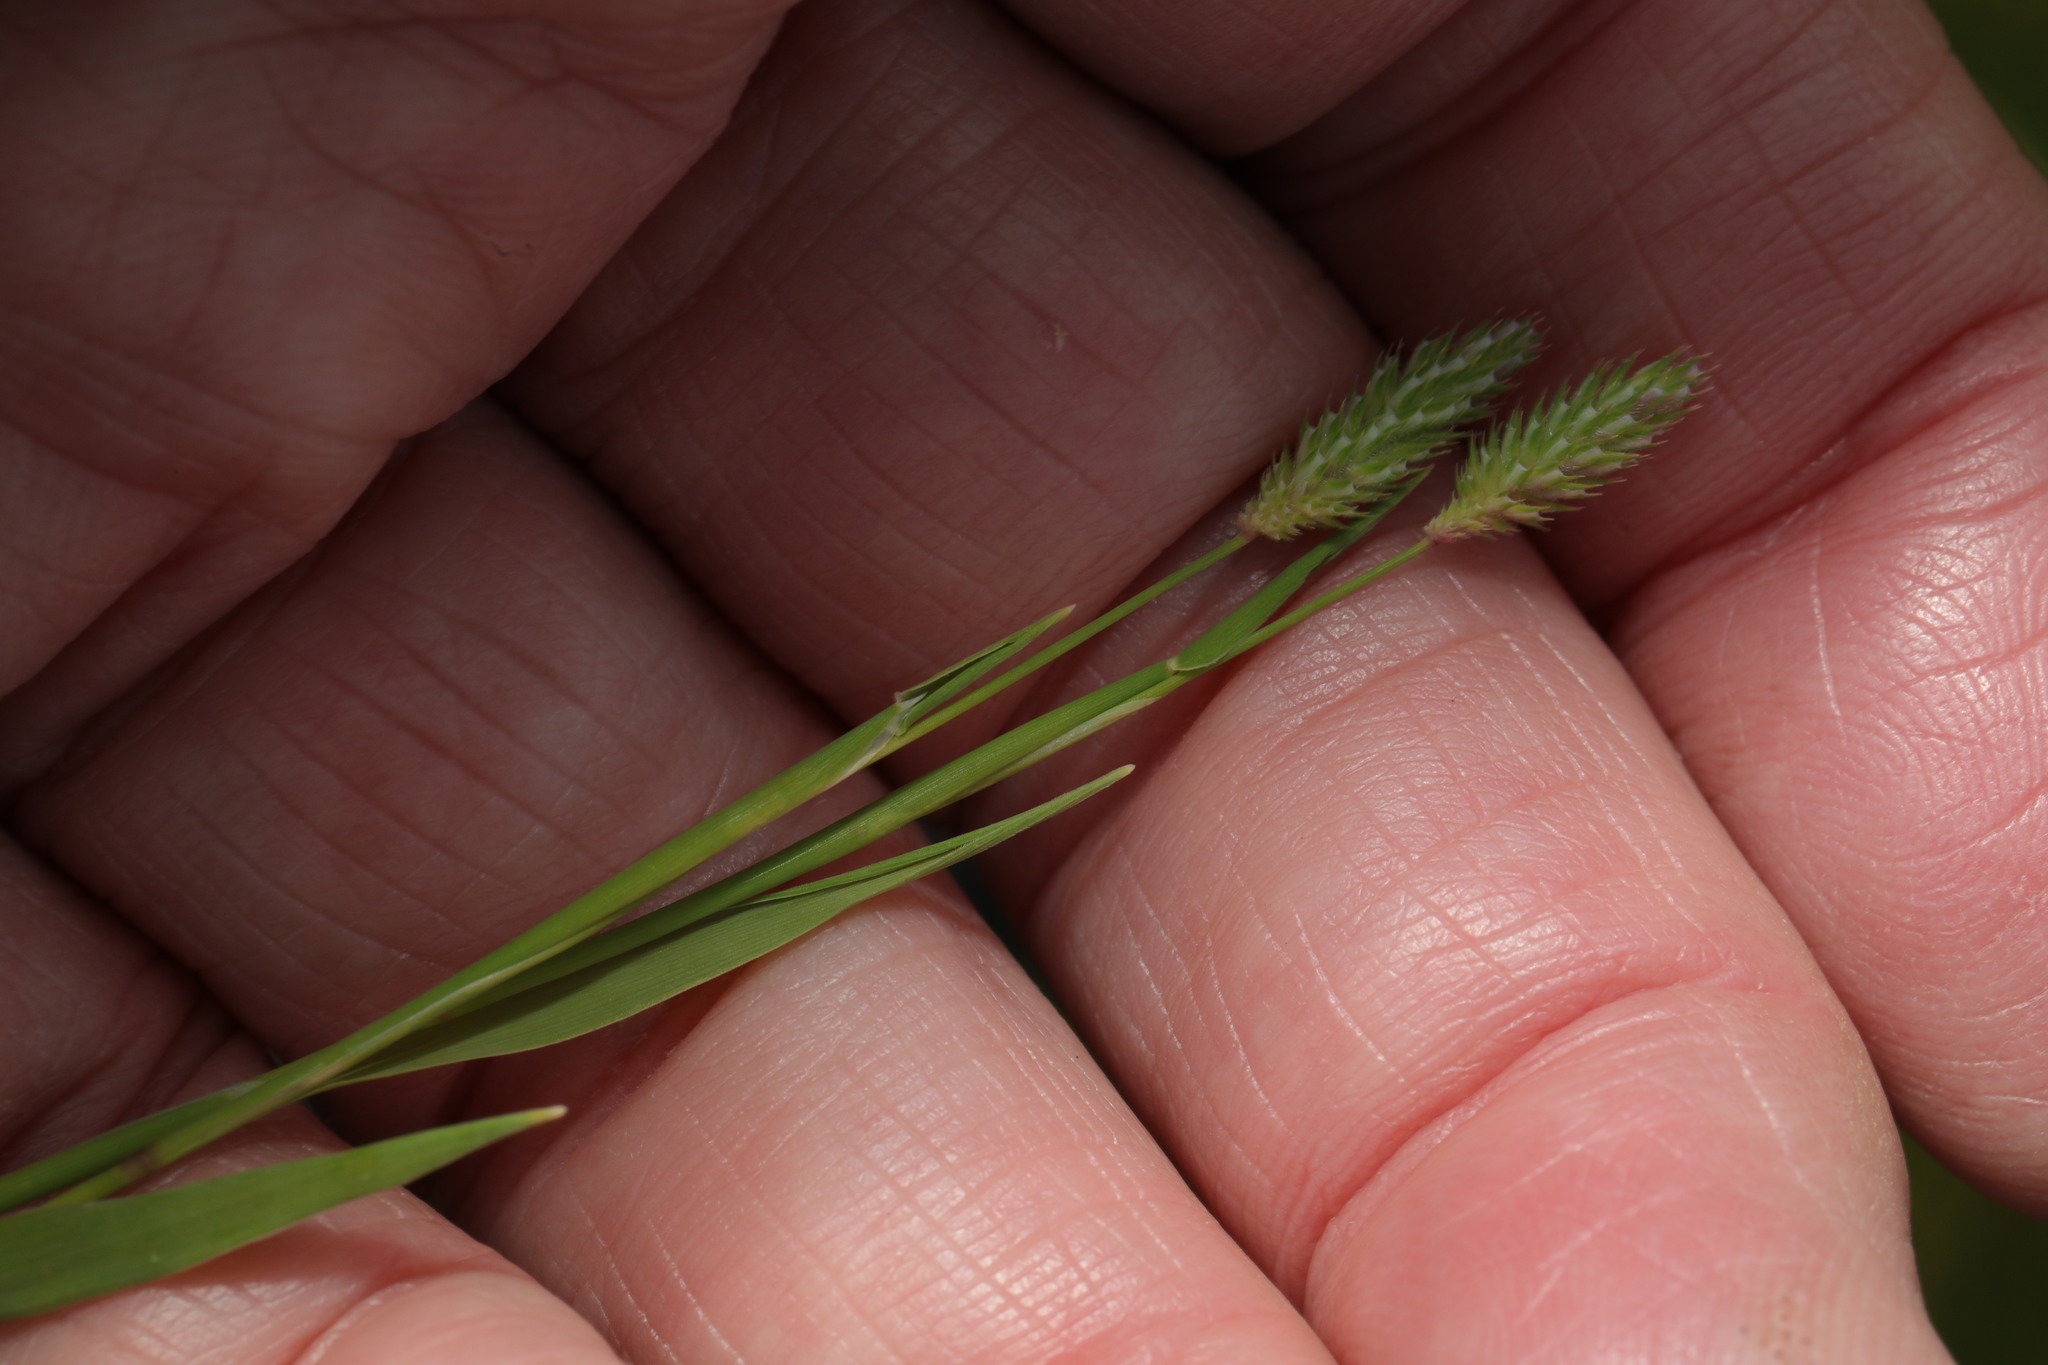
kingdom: Plantae
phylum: Tracheophyta
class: Liliopsida
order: Poales
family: Poaceae
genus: Phleum
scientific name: Phleum bertolonii
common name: Smaller cat's-tail
